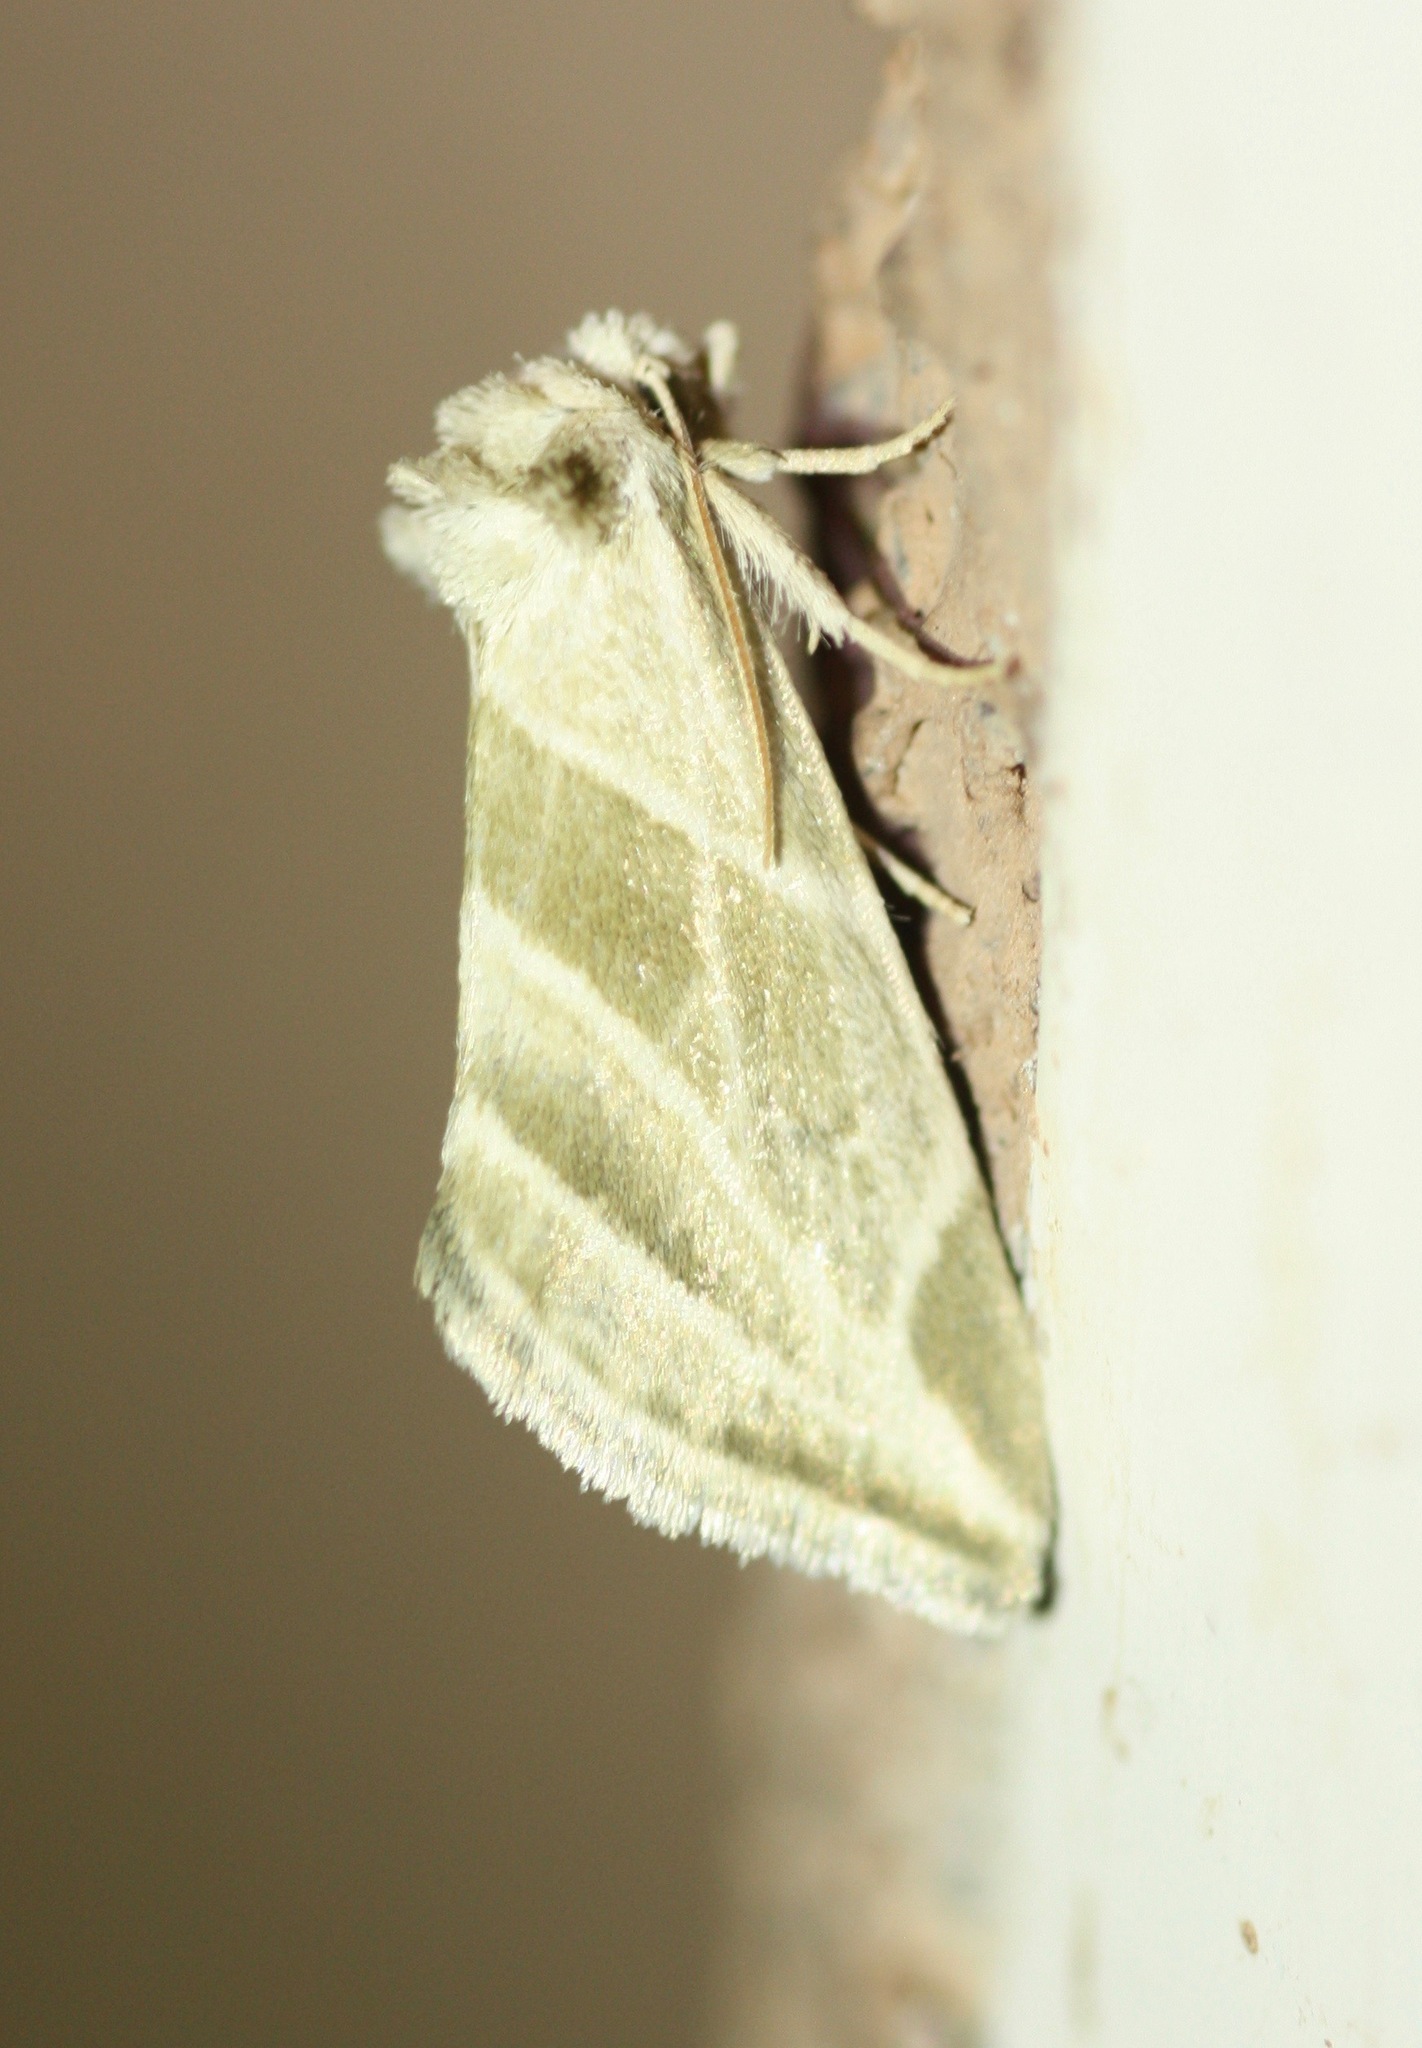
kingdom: Animalia
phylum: Arthropoda
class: Insecta
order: Lepidoptera
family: Noctuidae
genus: Plagiomimicus
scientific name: Plagiomimicus tepperi
